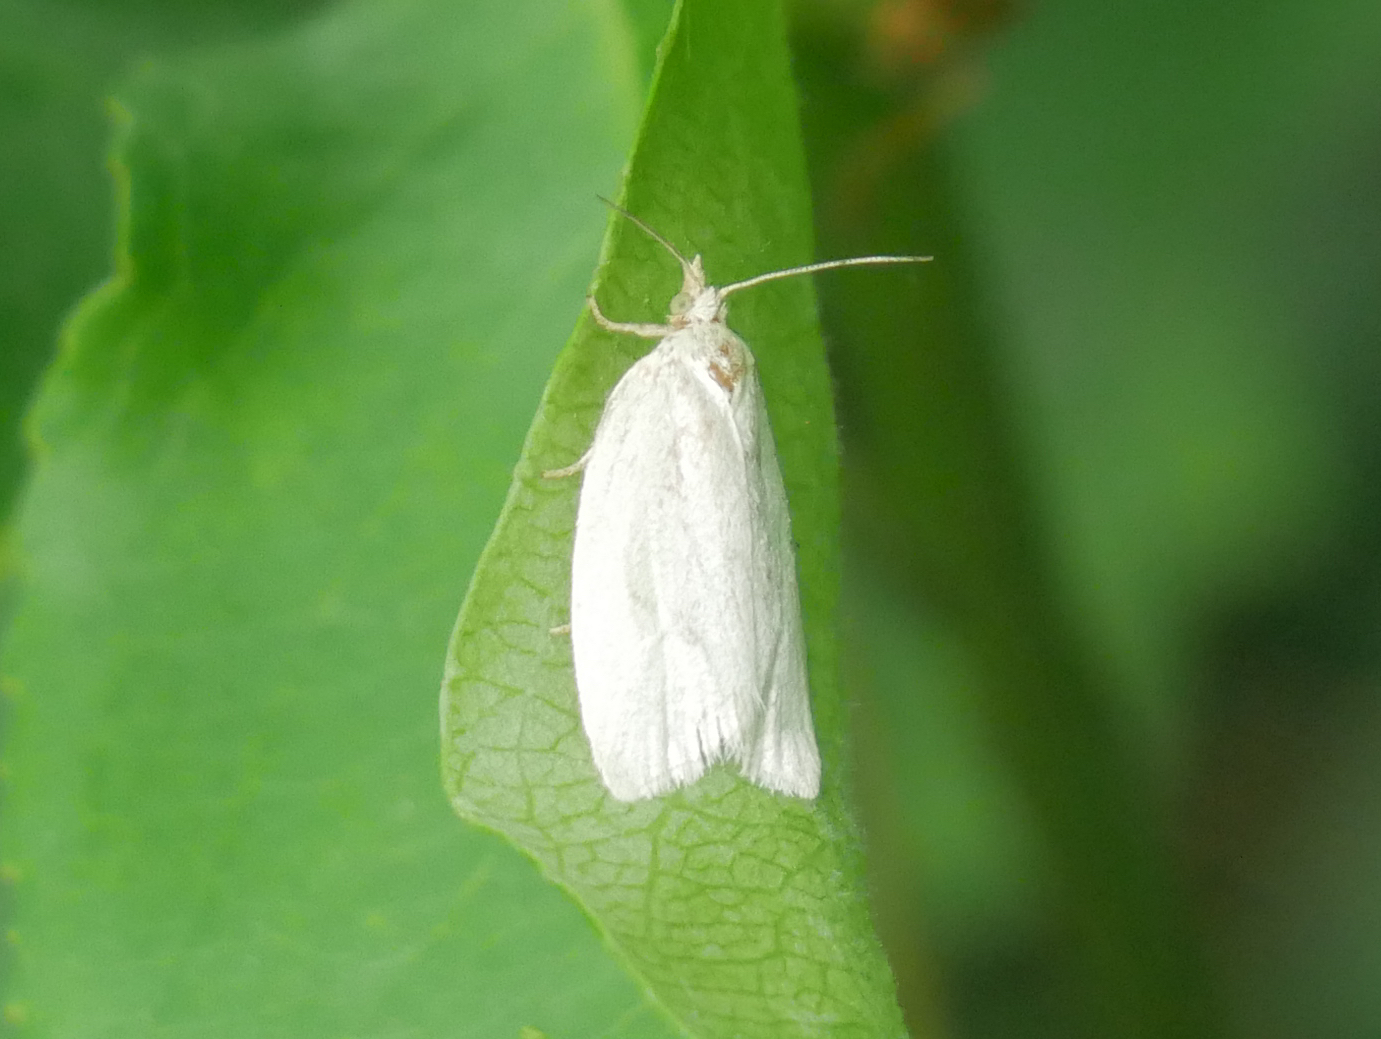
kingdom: Animalia
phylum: Arthropoda
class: Insecta
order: Lepidoptera
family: Tortricidae
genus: Tortrix
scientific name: Tortrix viridana
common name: Green oak tortrix
